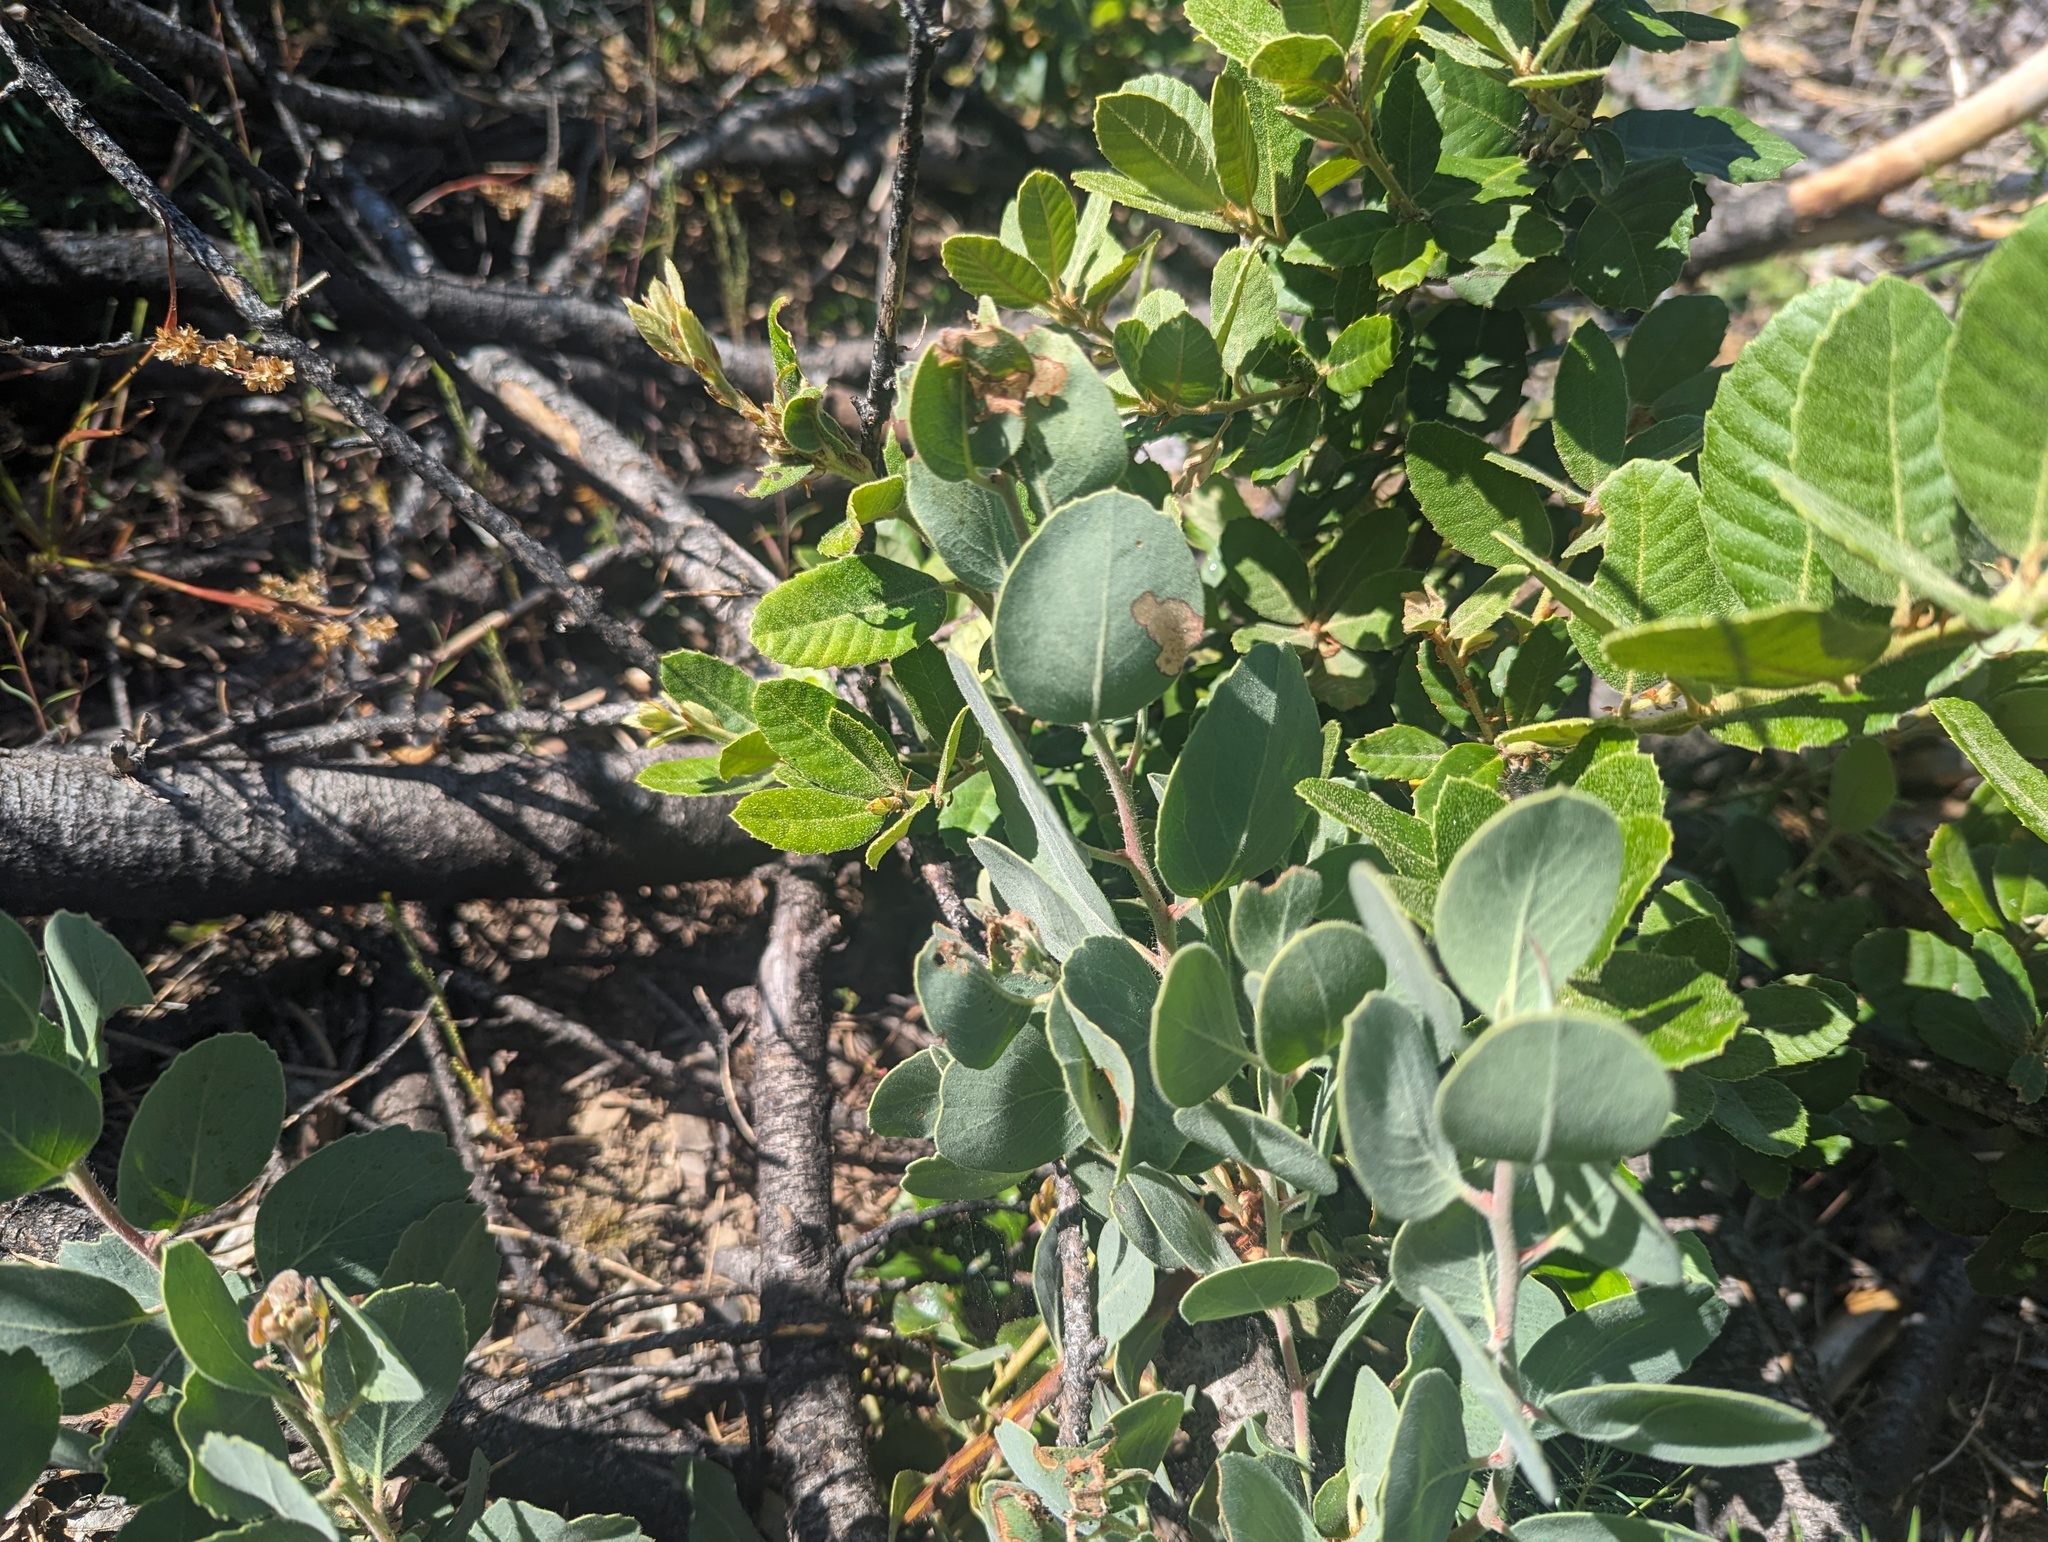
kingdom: Plantae
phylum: Tracheophyta
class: Magnoliopsida
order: Ericales
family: Ericaceae
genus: Arctostaphylos
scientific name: Arctostaphylos nortensis
